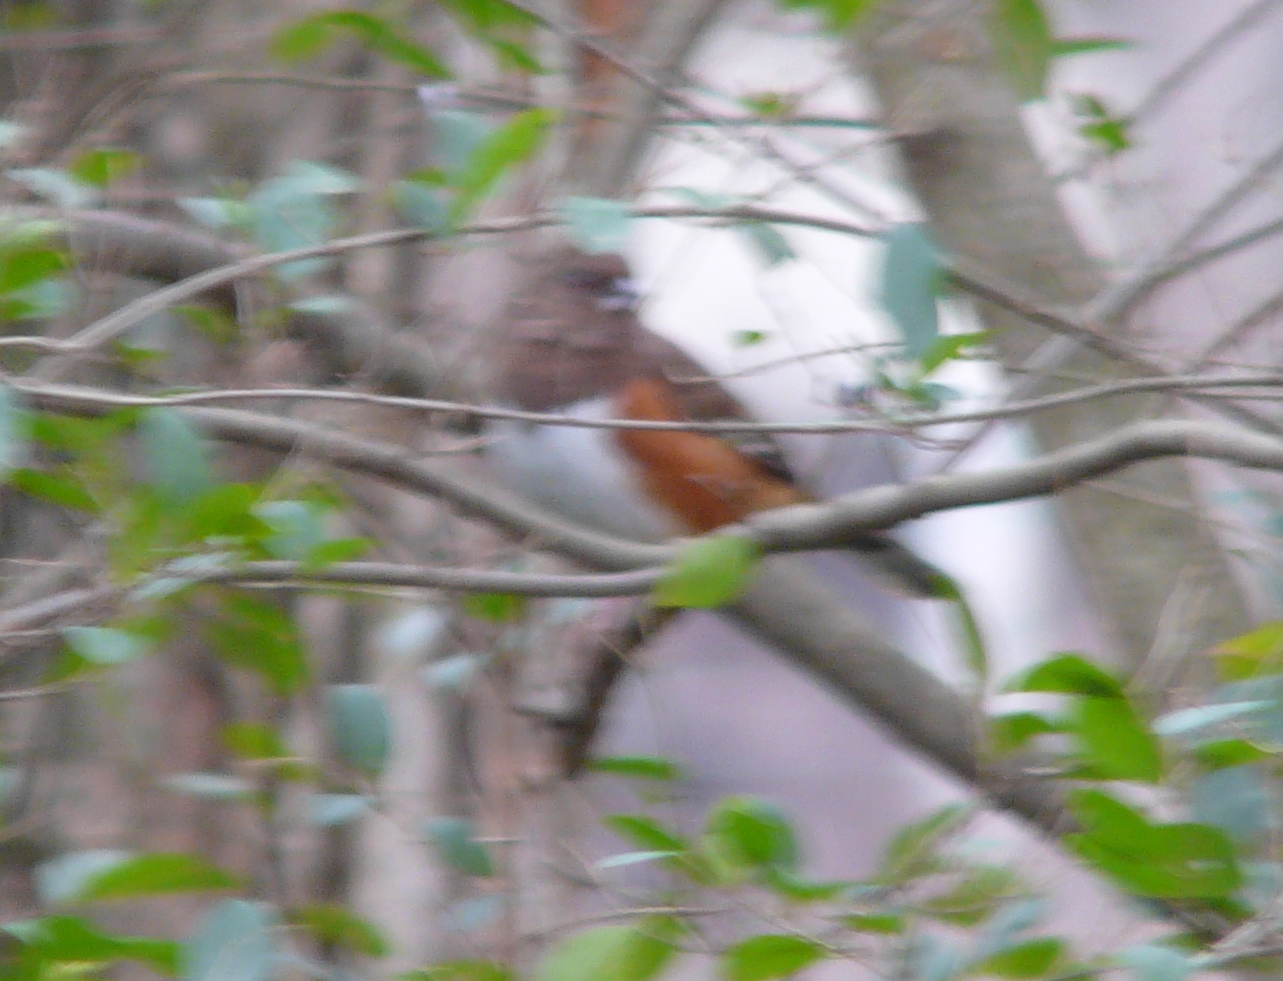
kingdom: Animalia
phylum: Chordata
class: Aves
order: Passeriformes
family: Passerellidae
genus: Pipilo
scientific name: Pipilo erythrophthalmus
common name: Eastern towhee
